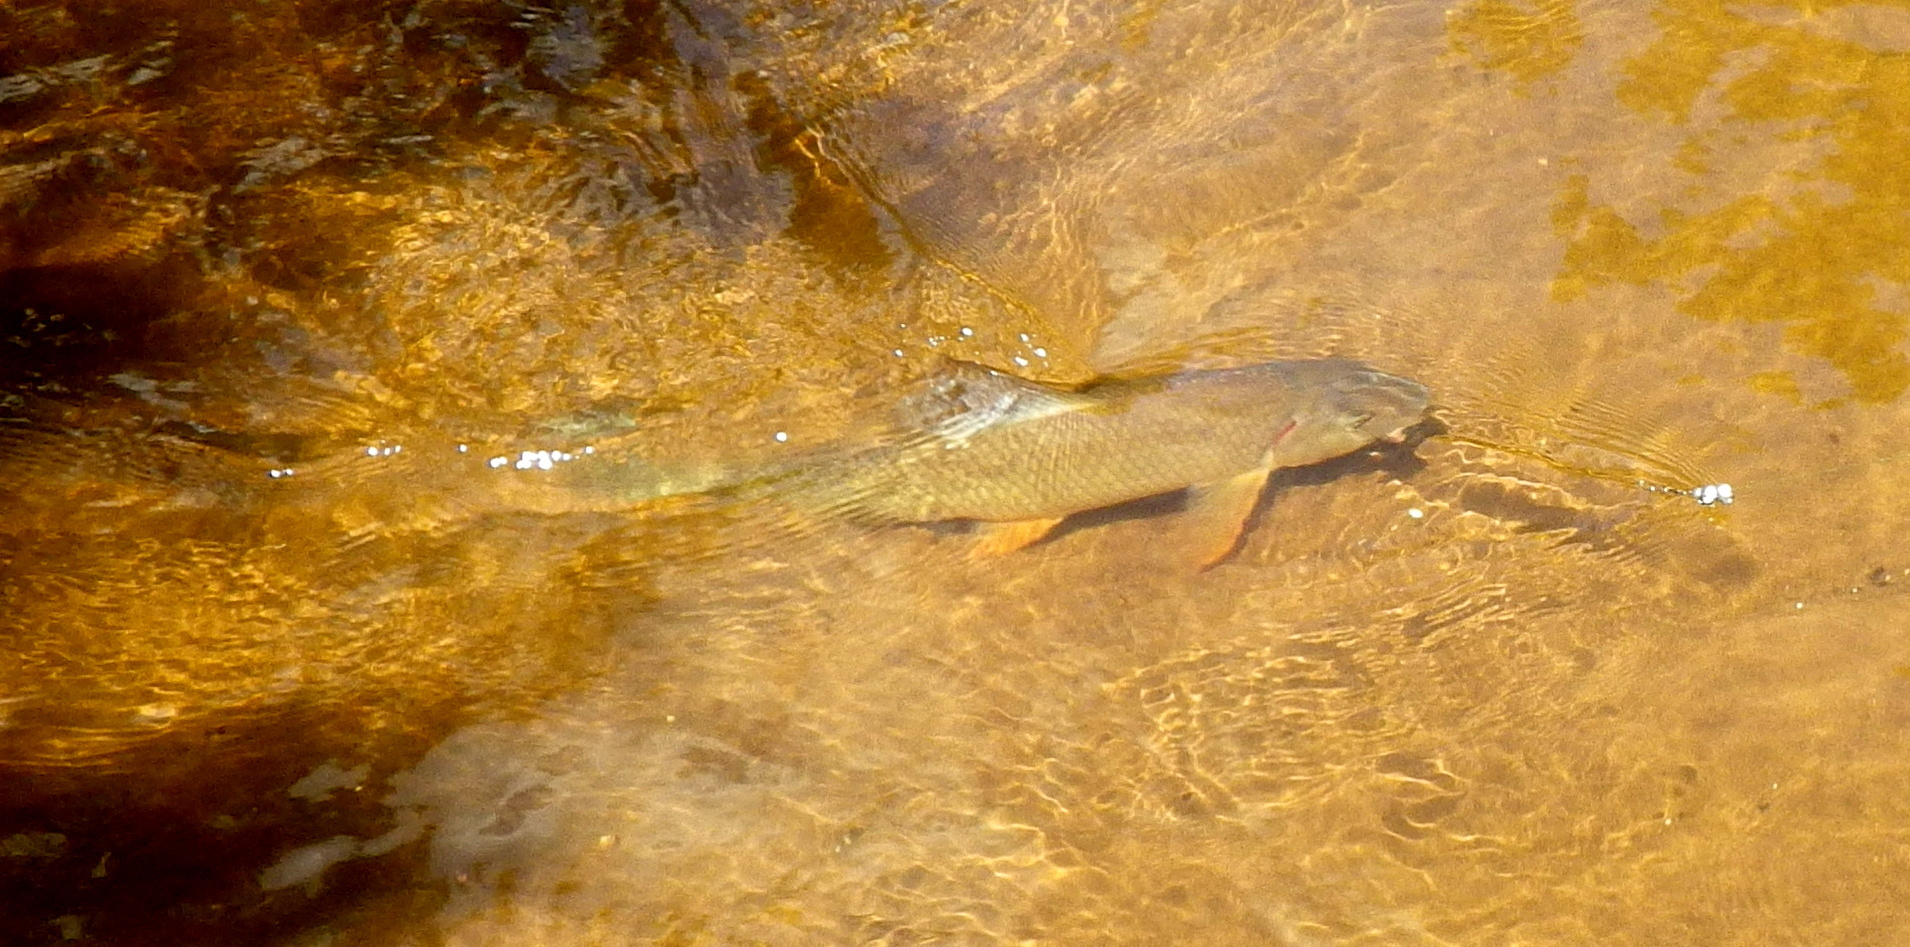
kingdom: Animalia
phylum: Chordata
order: Cypriniformes
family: Catostomidae
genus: Moxostoma
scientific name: Moxostoma anisurum
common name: Silver redhorse
